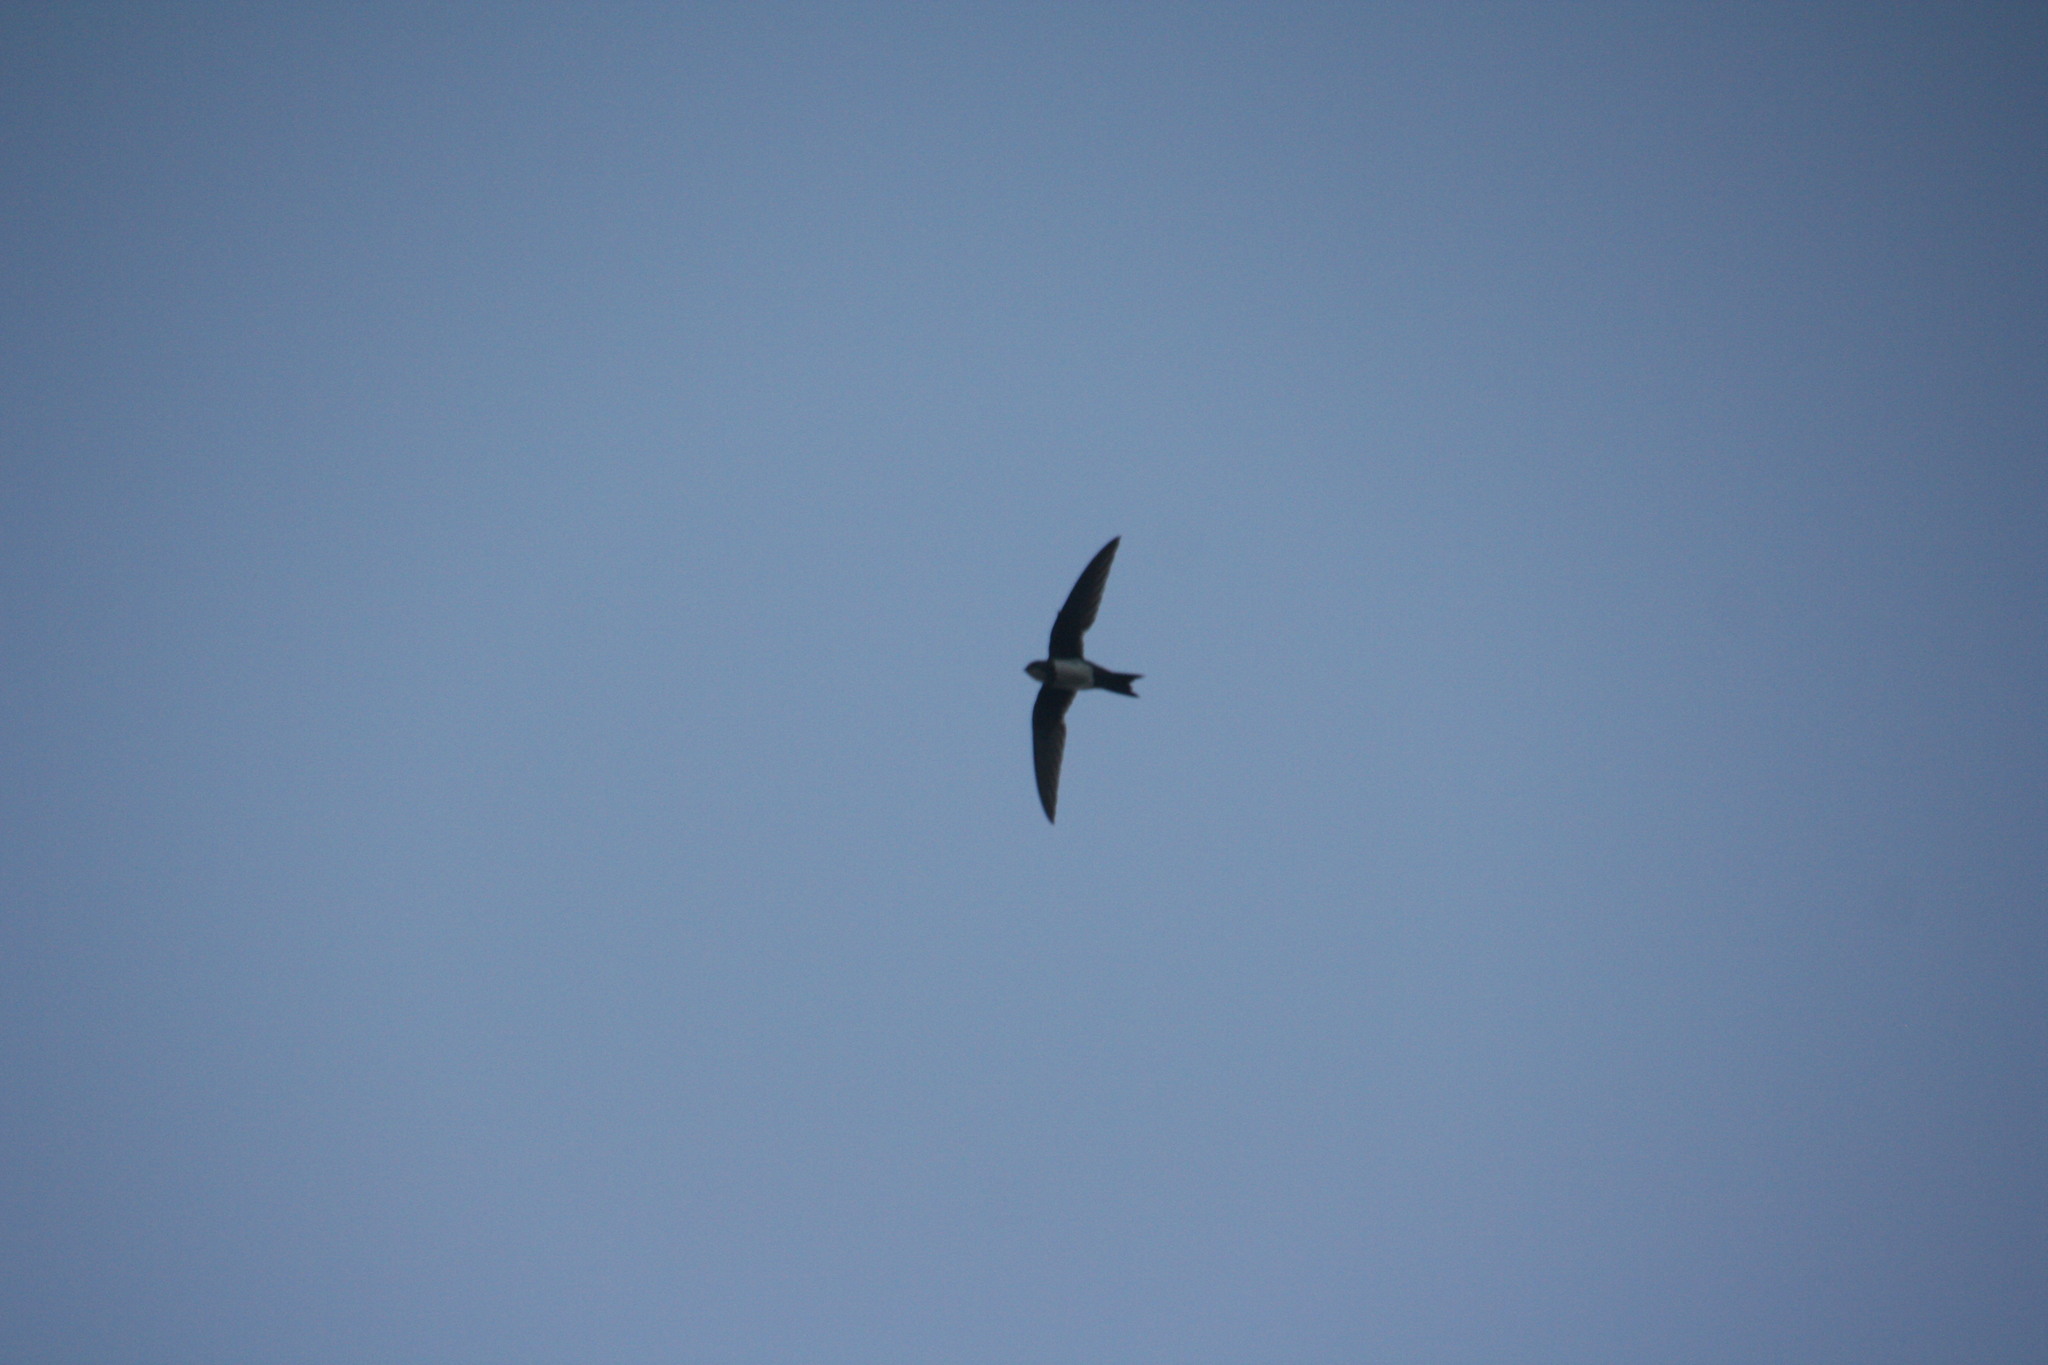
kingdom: Animalia
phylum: Chordata
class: Aves
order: Apodiformes
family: Apodidae
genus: Tachymarptis
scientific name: Tachymarptis melba
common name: Alpine swift
